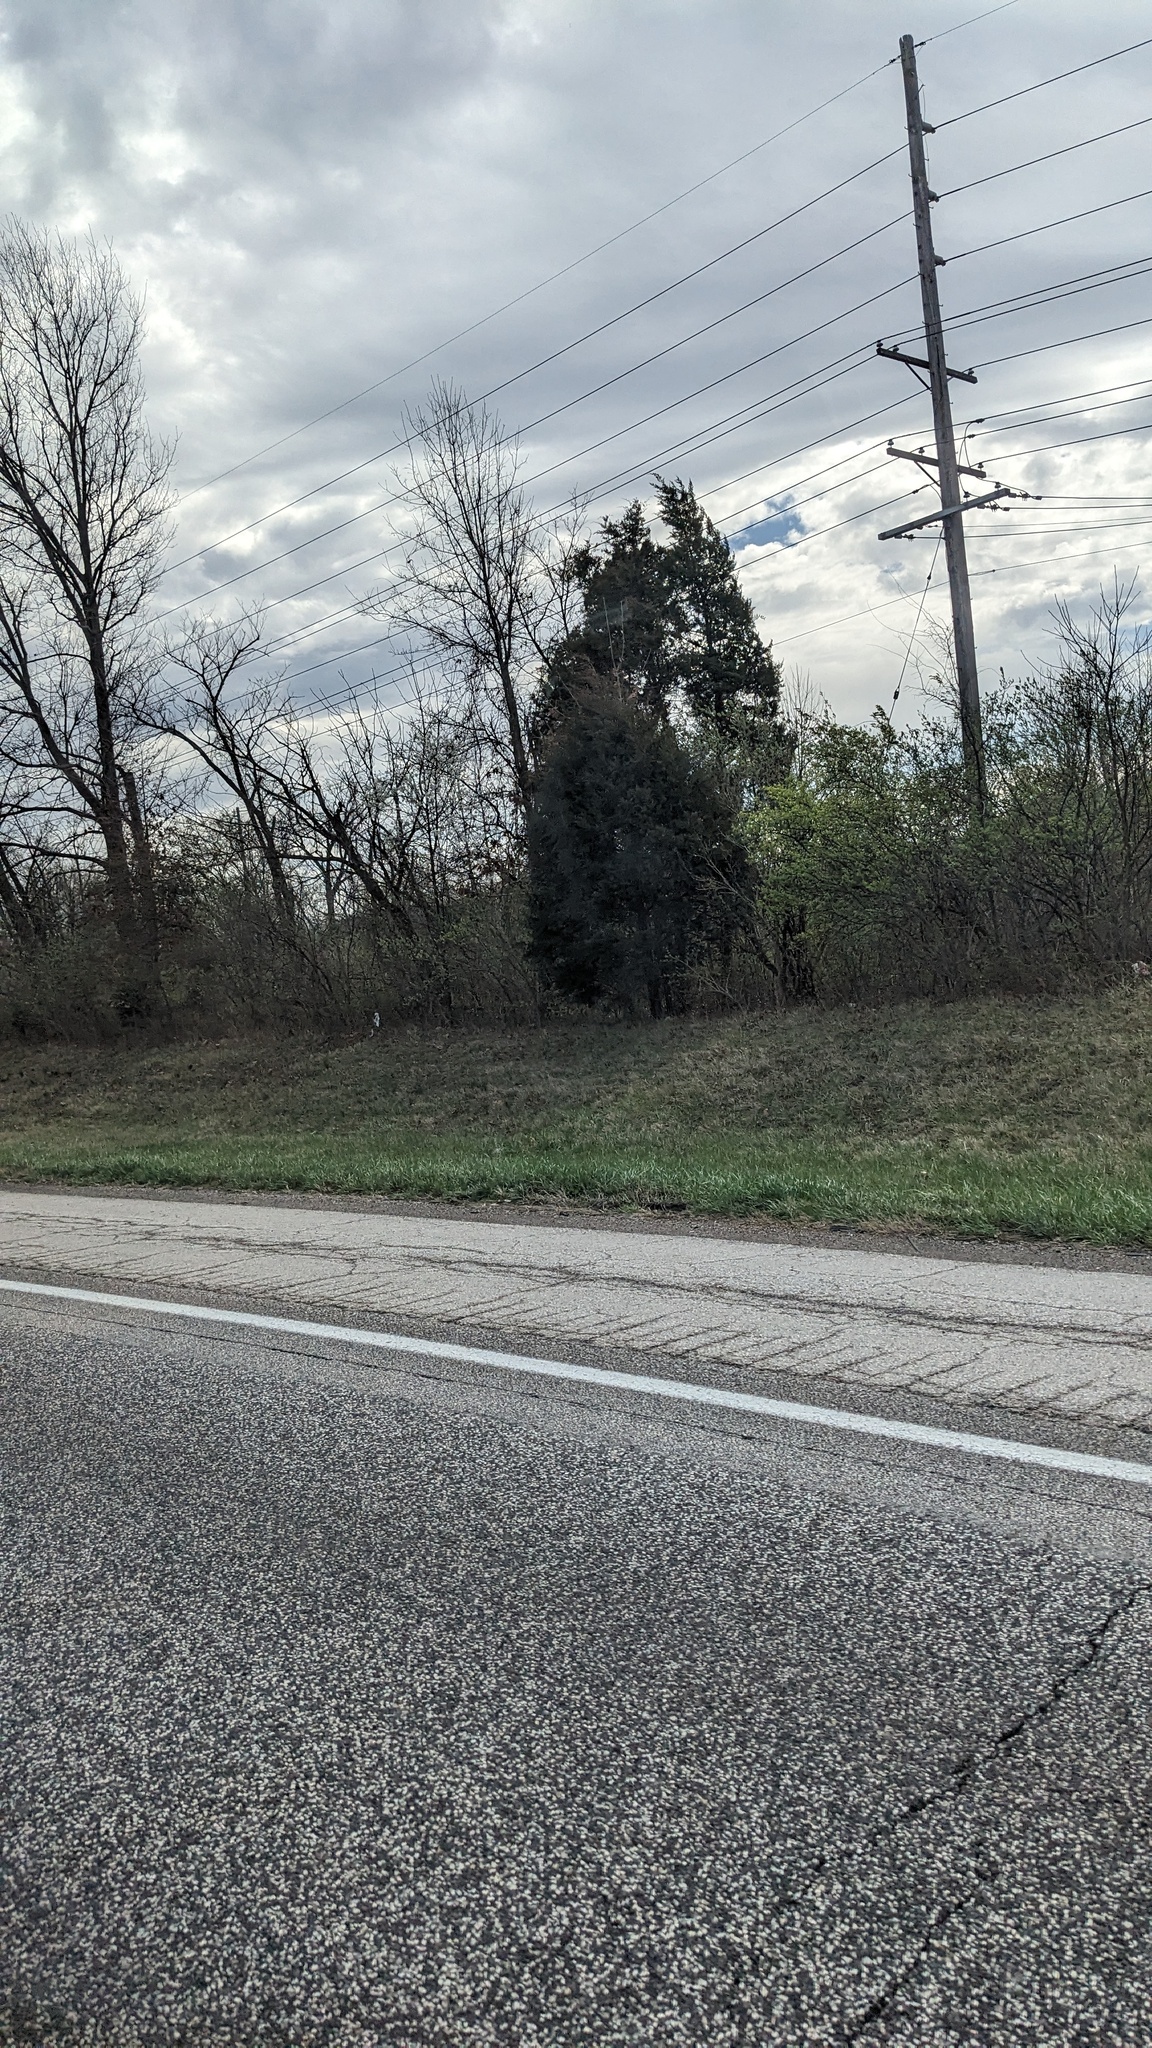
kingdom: Plantae
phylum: Tracheophyta
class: Pinopsida
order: Pinales
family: Cupressaceae
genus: Juniperus
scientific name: Juniperus virginiana
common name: Red juniper
